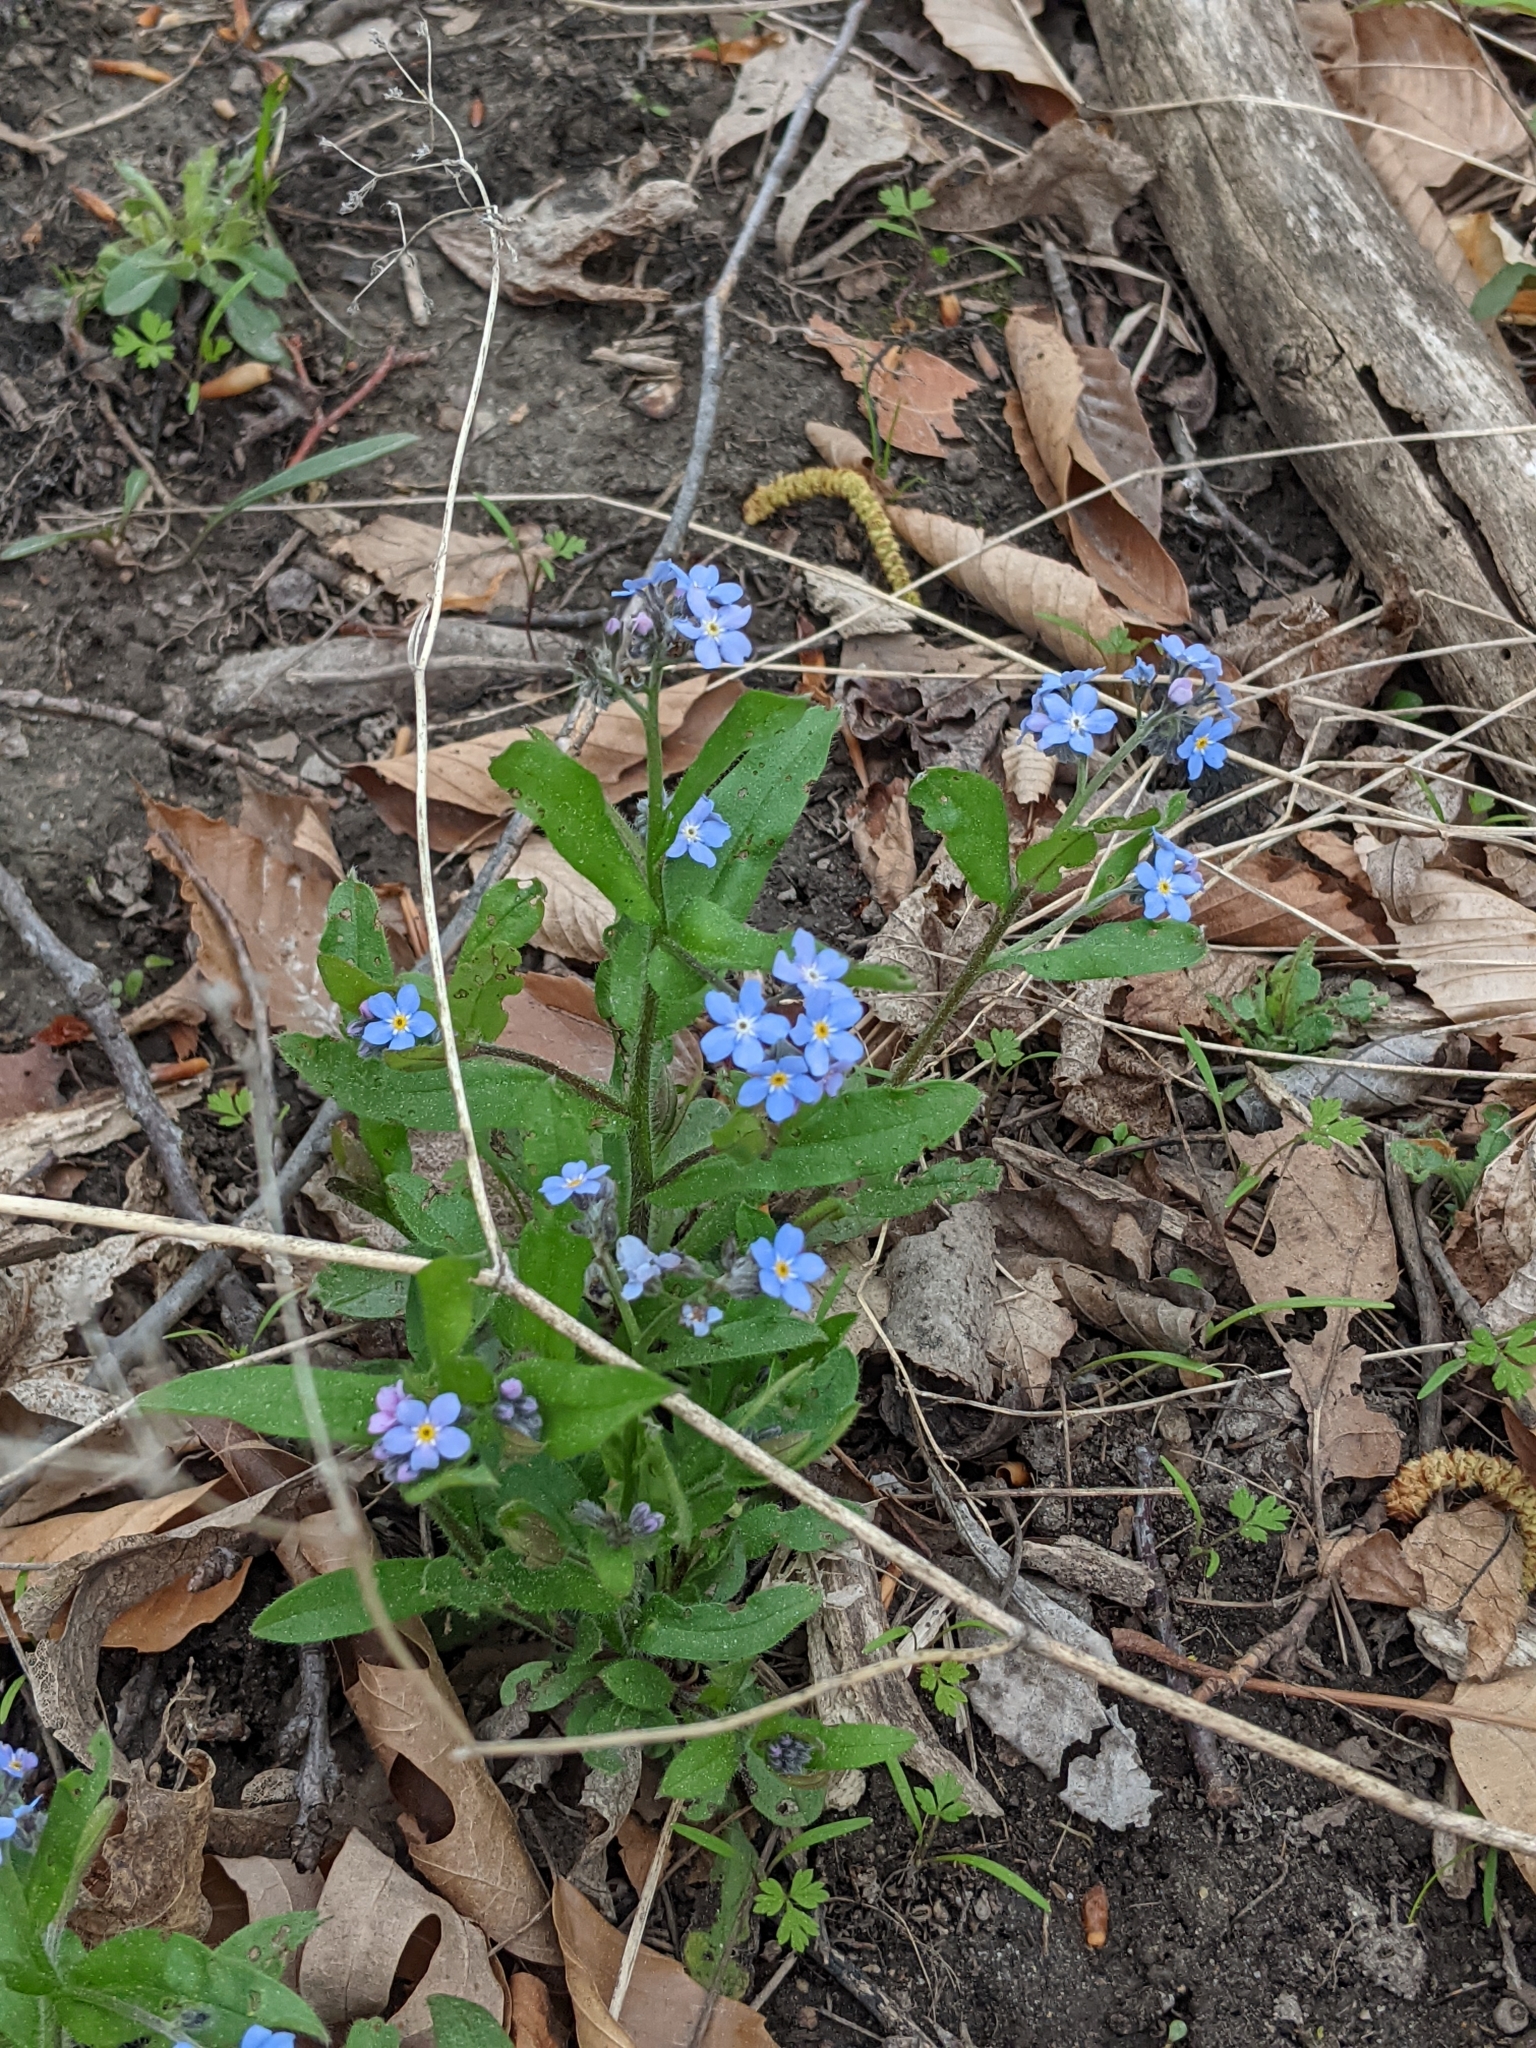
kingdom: Plantae
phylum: Tracheophyta
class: Magnoliopsida
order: Boraginales
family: Boraginaceae
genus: Myosotis
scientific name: Myosotis sylvatica
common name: Wood forget-me-not
